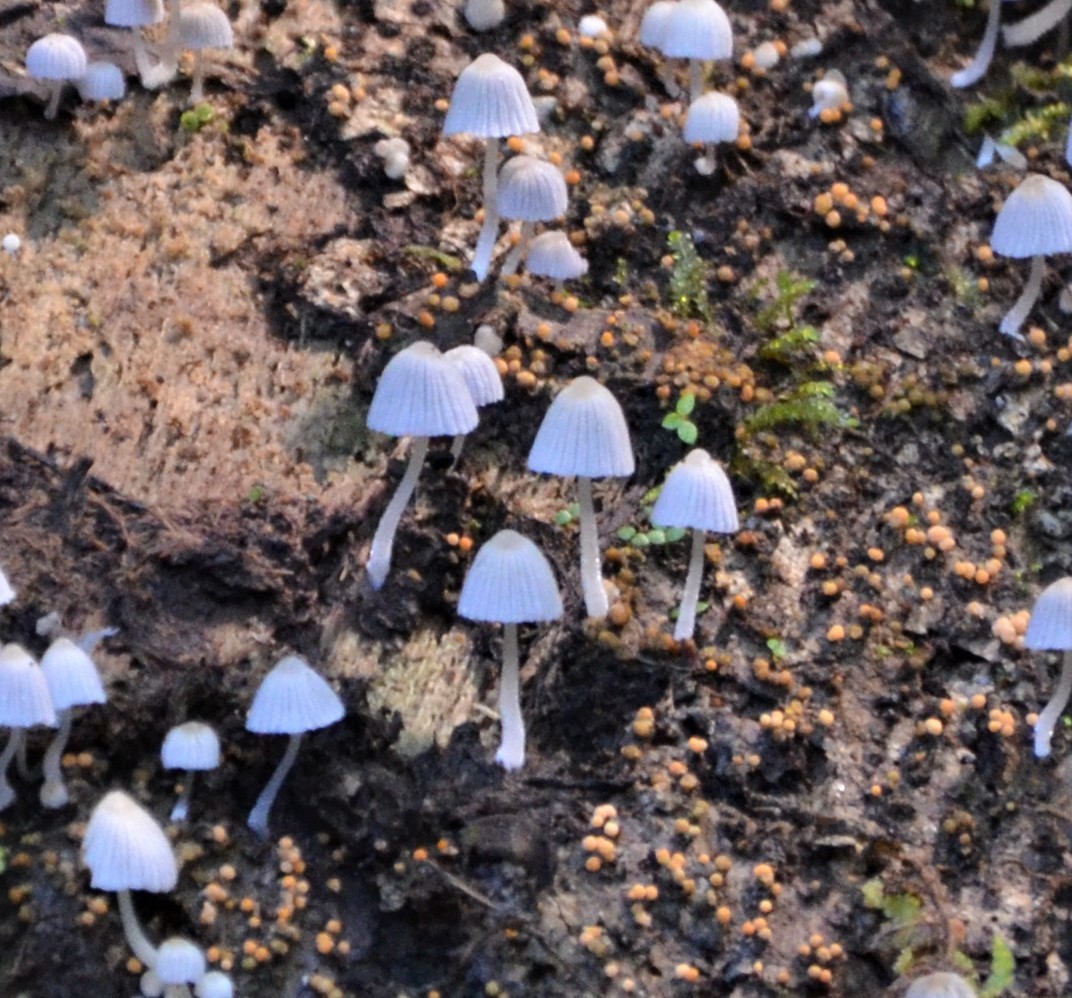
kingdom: Fungi
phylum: Basidiomycota
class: Agaricomycetes
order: Agaricales
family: Psathyrellaceae
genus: Coprinellus
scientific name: Coprinellus disseminatus
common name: Fairies' bonnets
